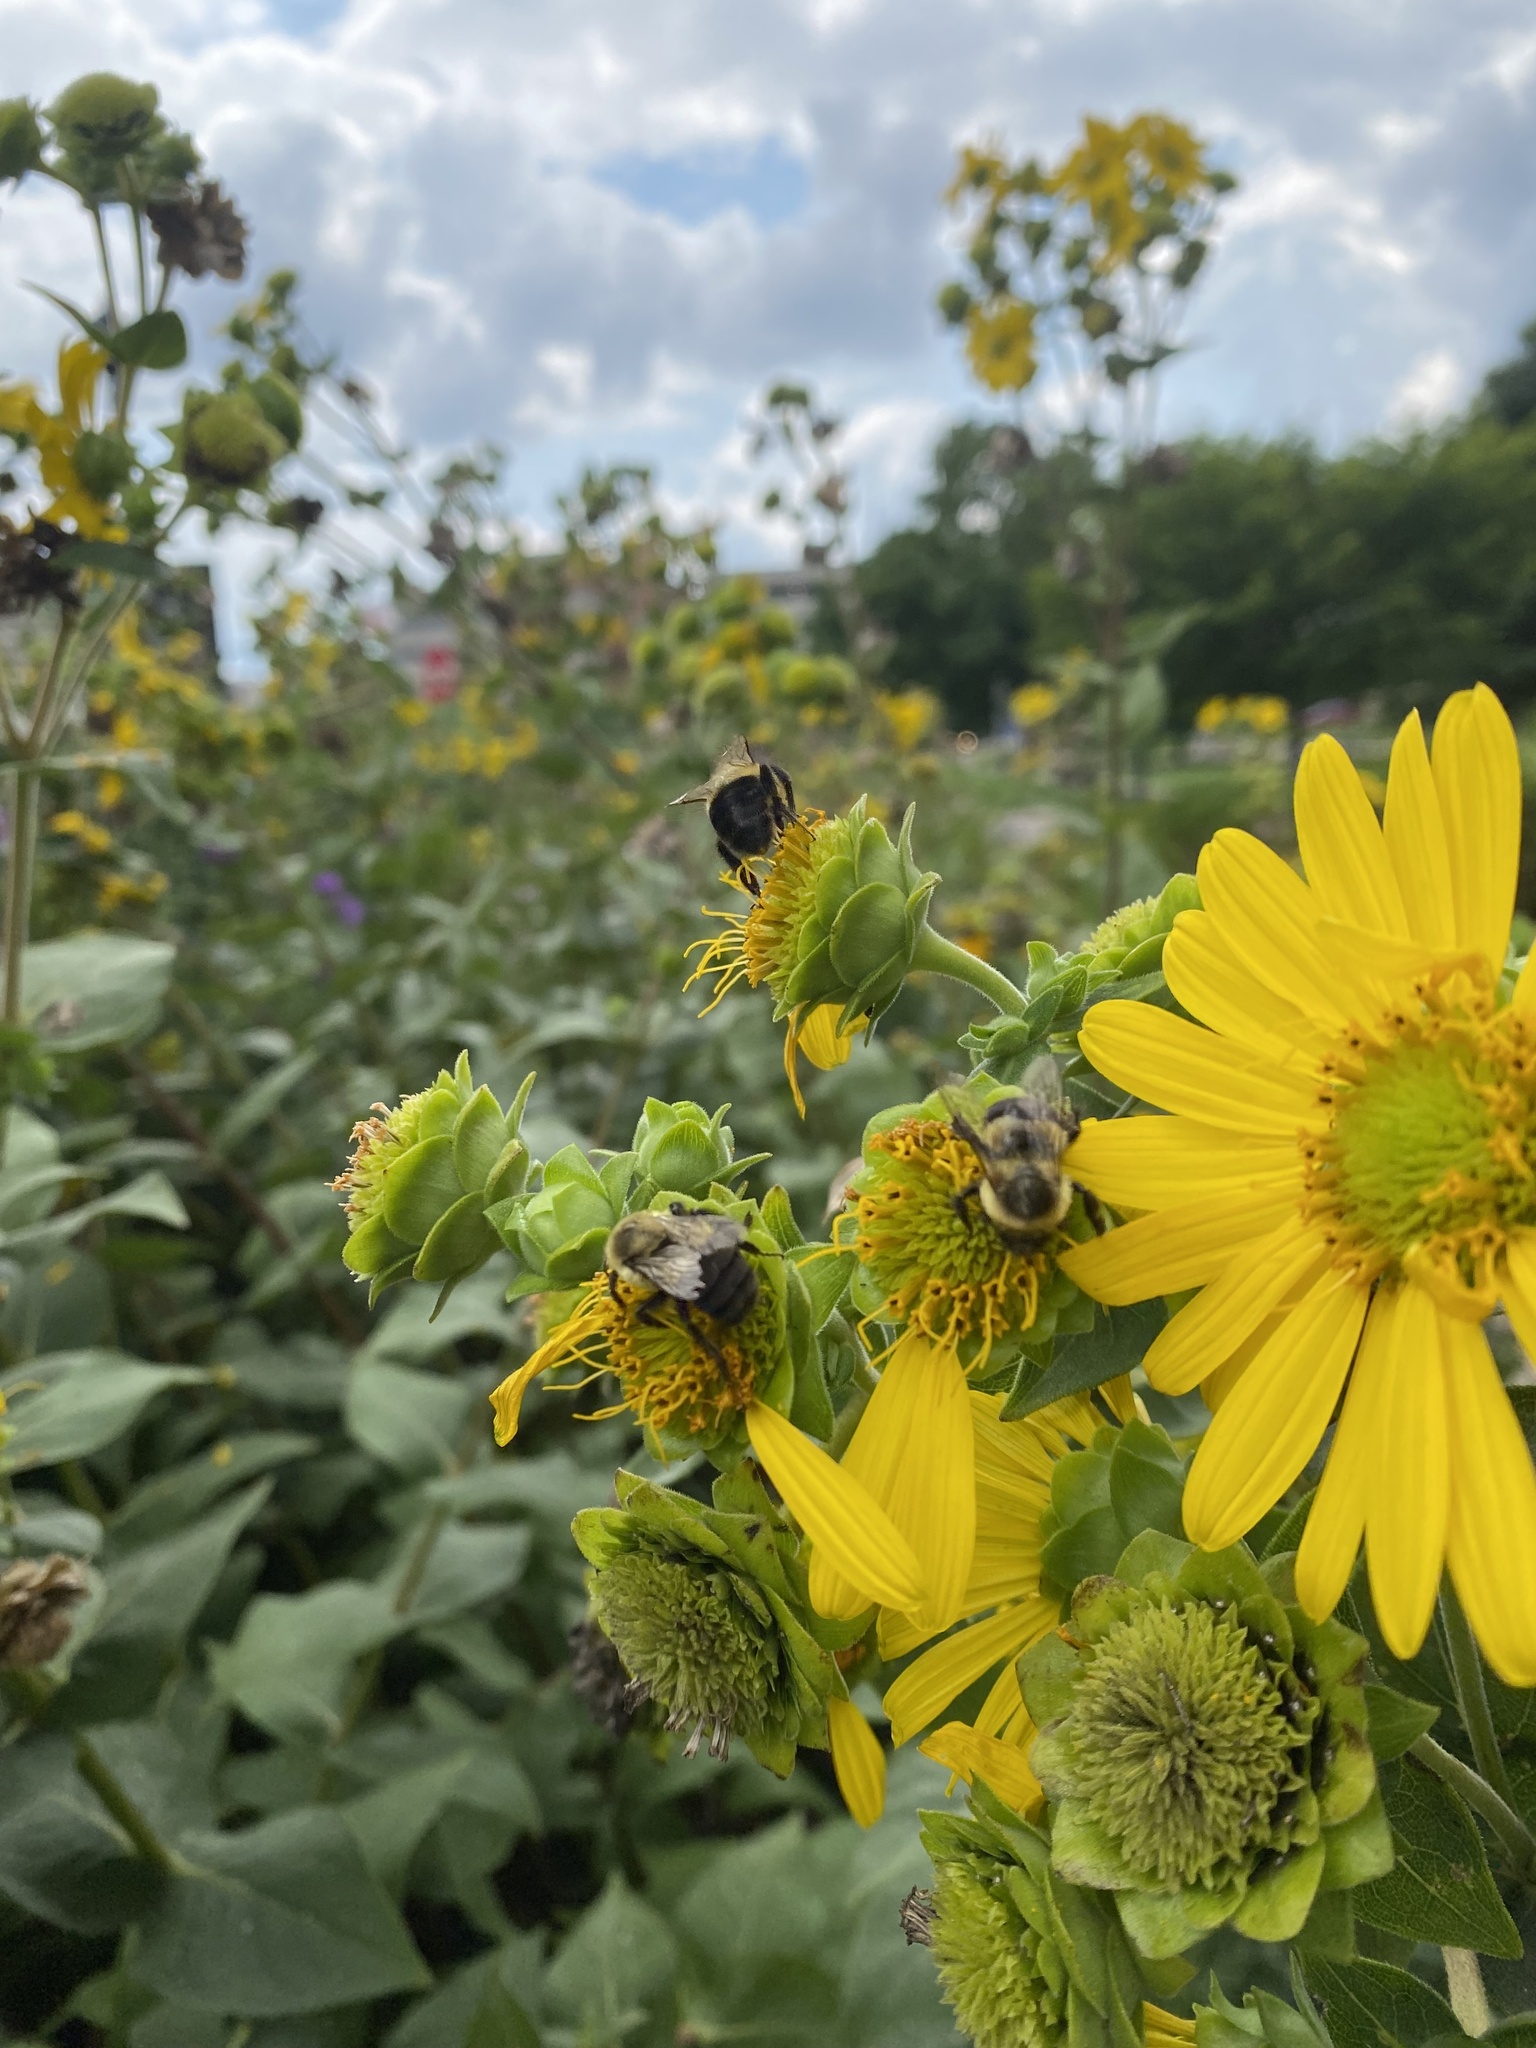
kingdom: Animalia
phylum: Arthropoda
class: Insecta
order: Hymenoptera
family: Apidae
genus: Bombus
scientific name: Bombus impatiens
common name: Common eastern bumble bee
